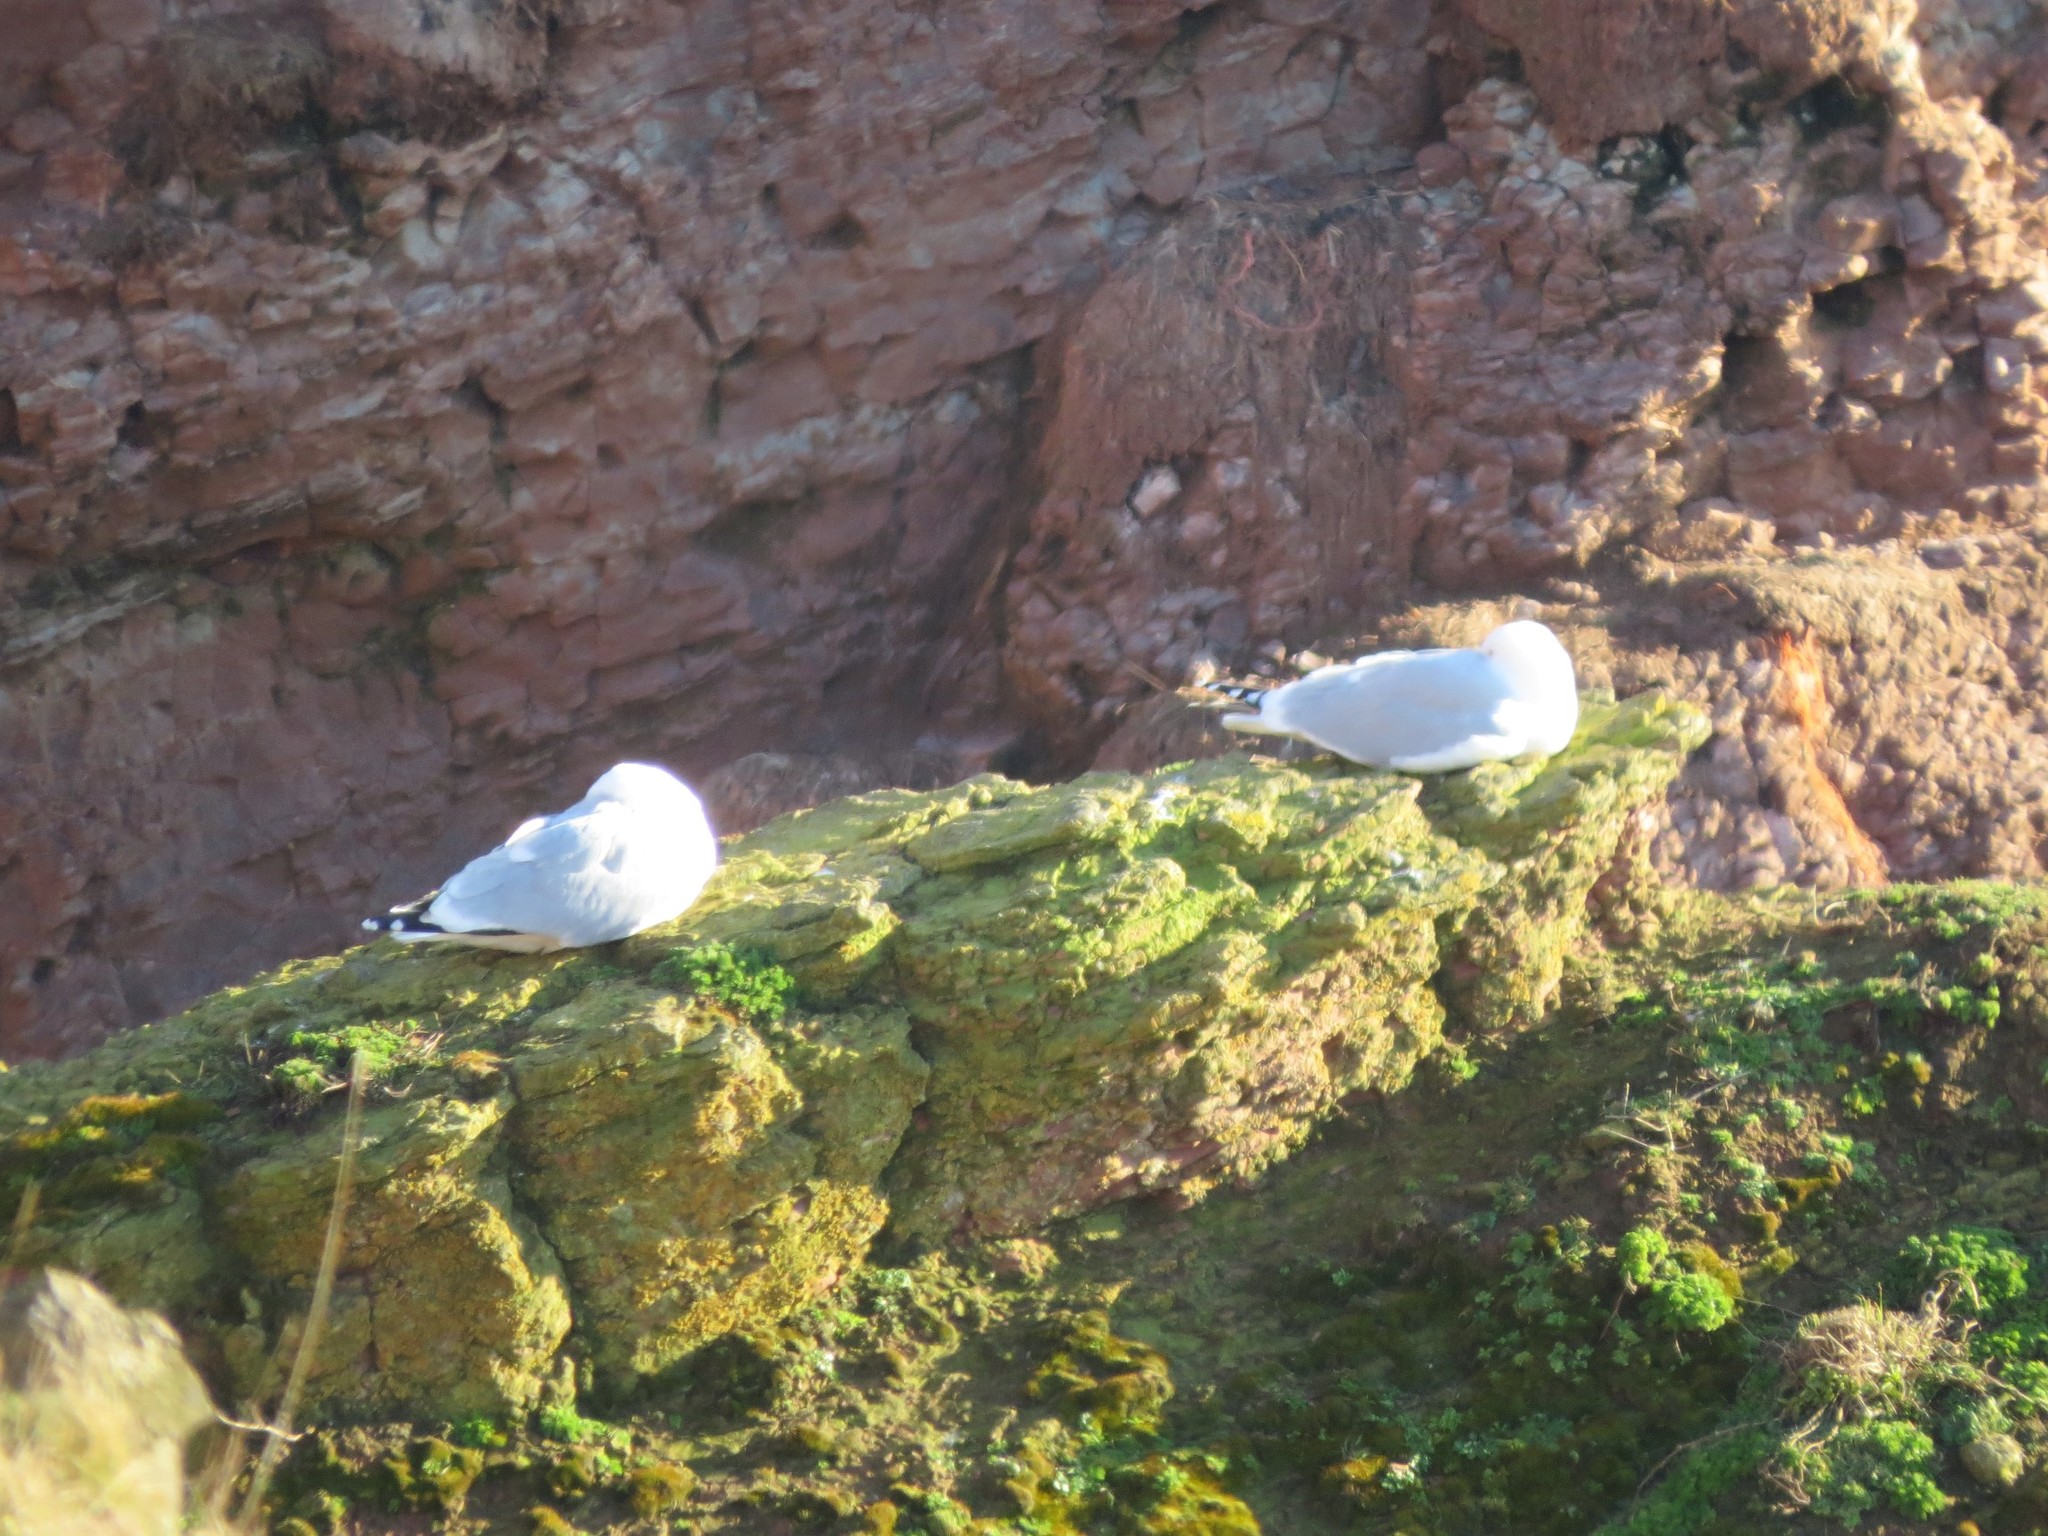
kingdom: Animalia
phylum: Chordata
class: Aves
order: Charadriiformes
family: Laridae
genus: Larus
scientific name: Larus argentatus
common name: Herring gull
